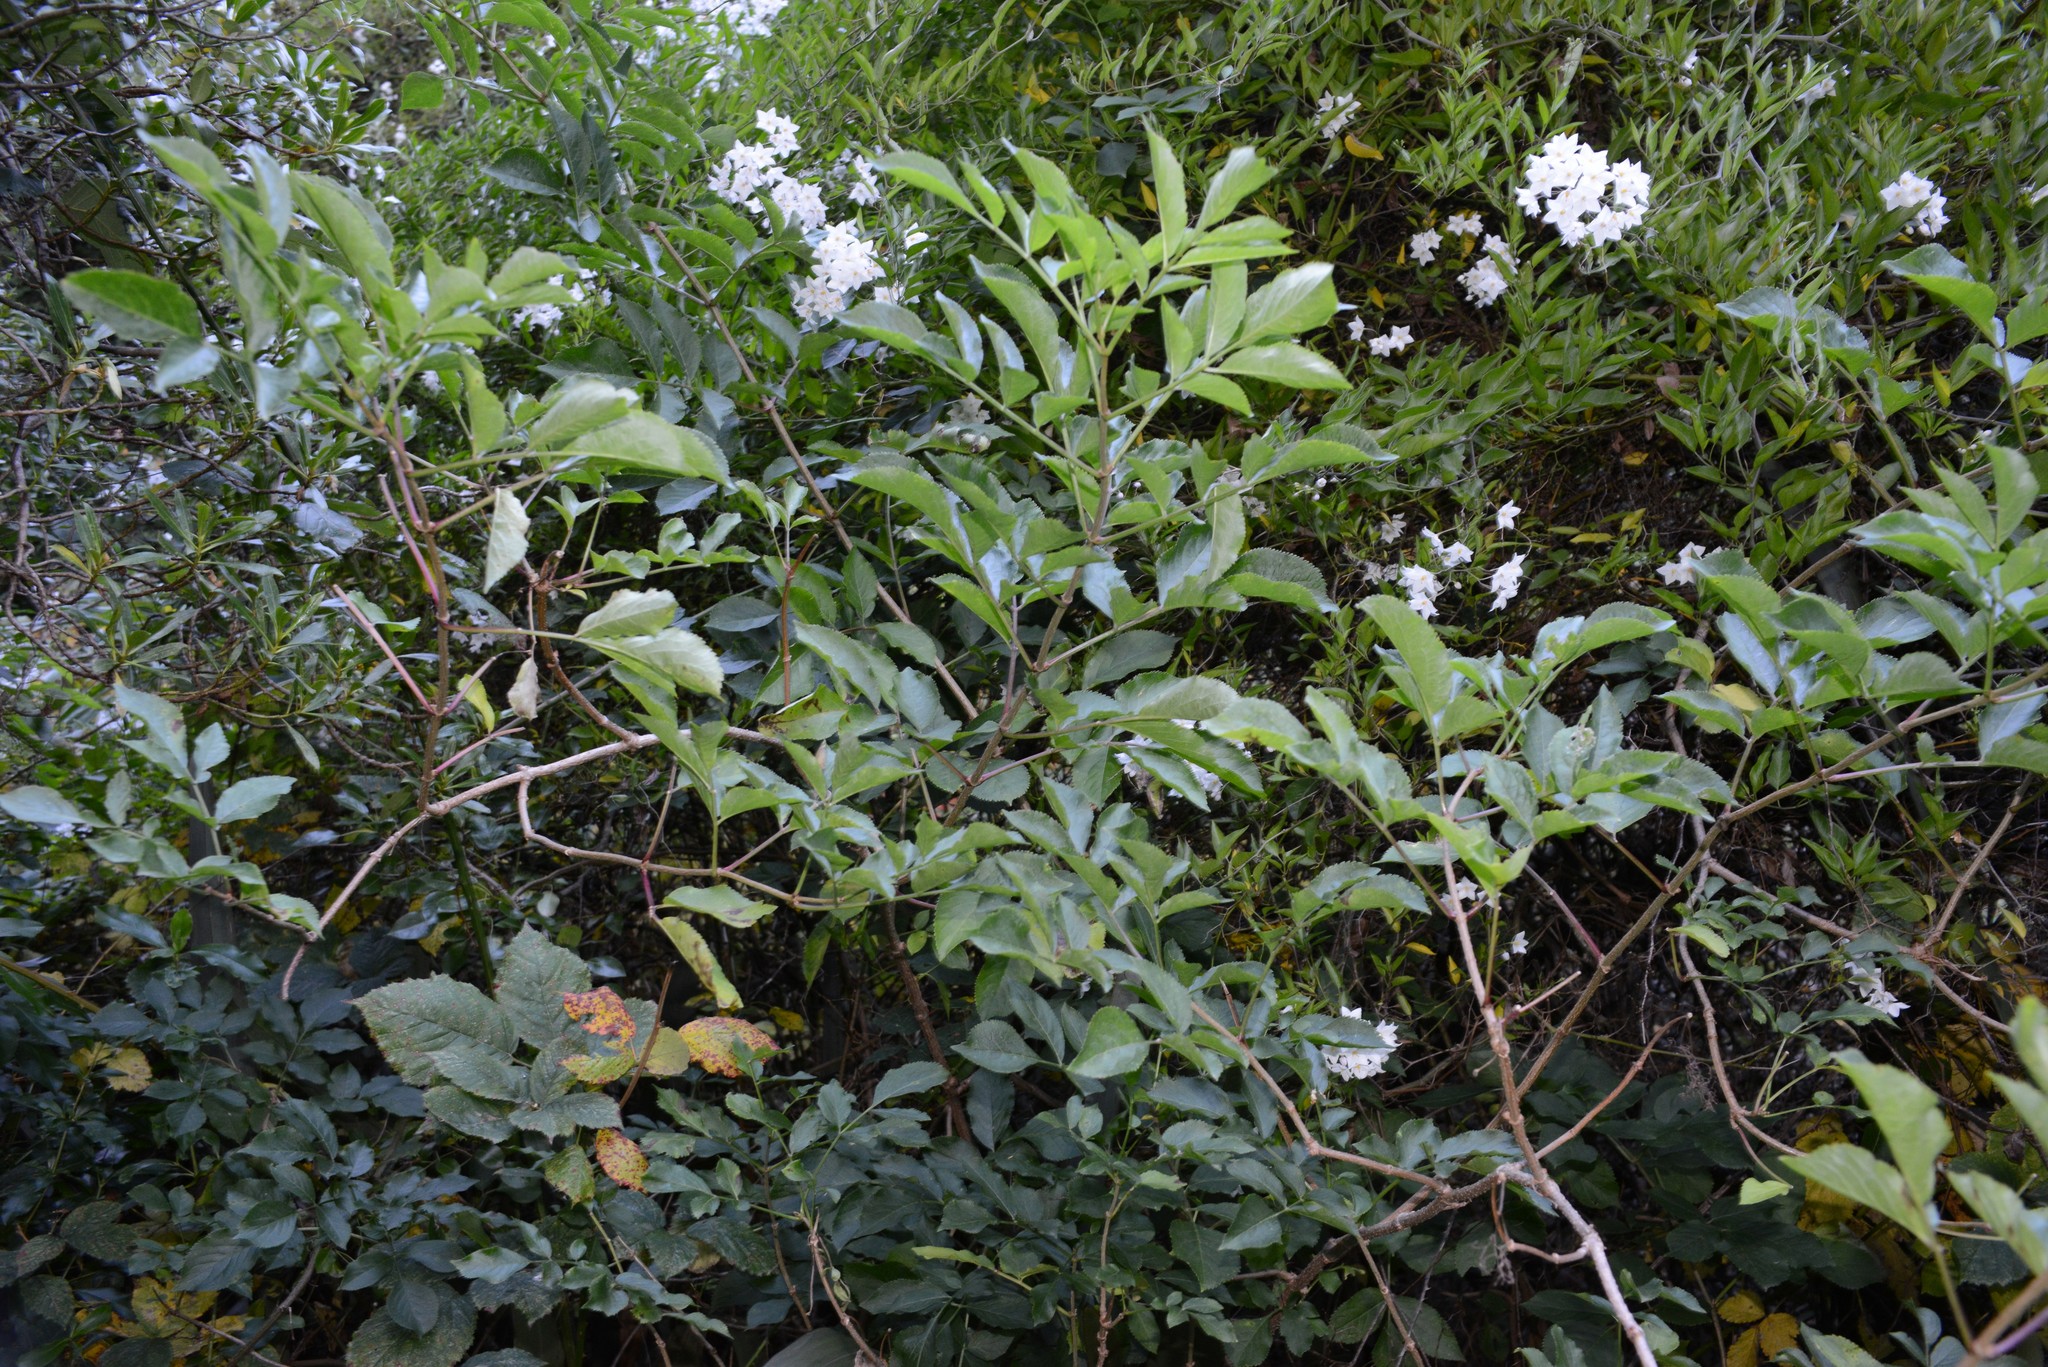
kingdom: Plantae
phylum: Tracheophyta
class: Magnoliopsida
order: Dipsacales
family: Viburnaceae
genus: Sambucus
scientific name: Sambucus nigra
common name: Elder
